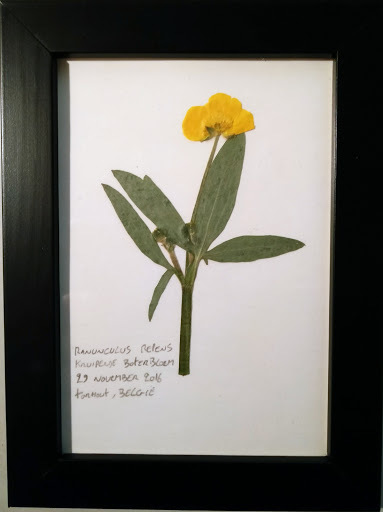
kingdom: Plantae
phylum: Tracheophyta
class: Magnoliopsida
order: Ranunculales
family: Ranunculaceae
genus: Ranunculus
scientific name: Ranunculus repens
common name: Creeping buttercup
